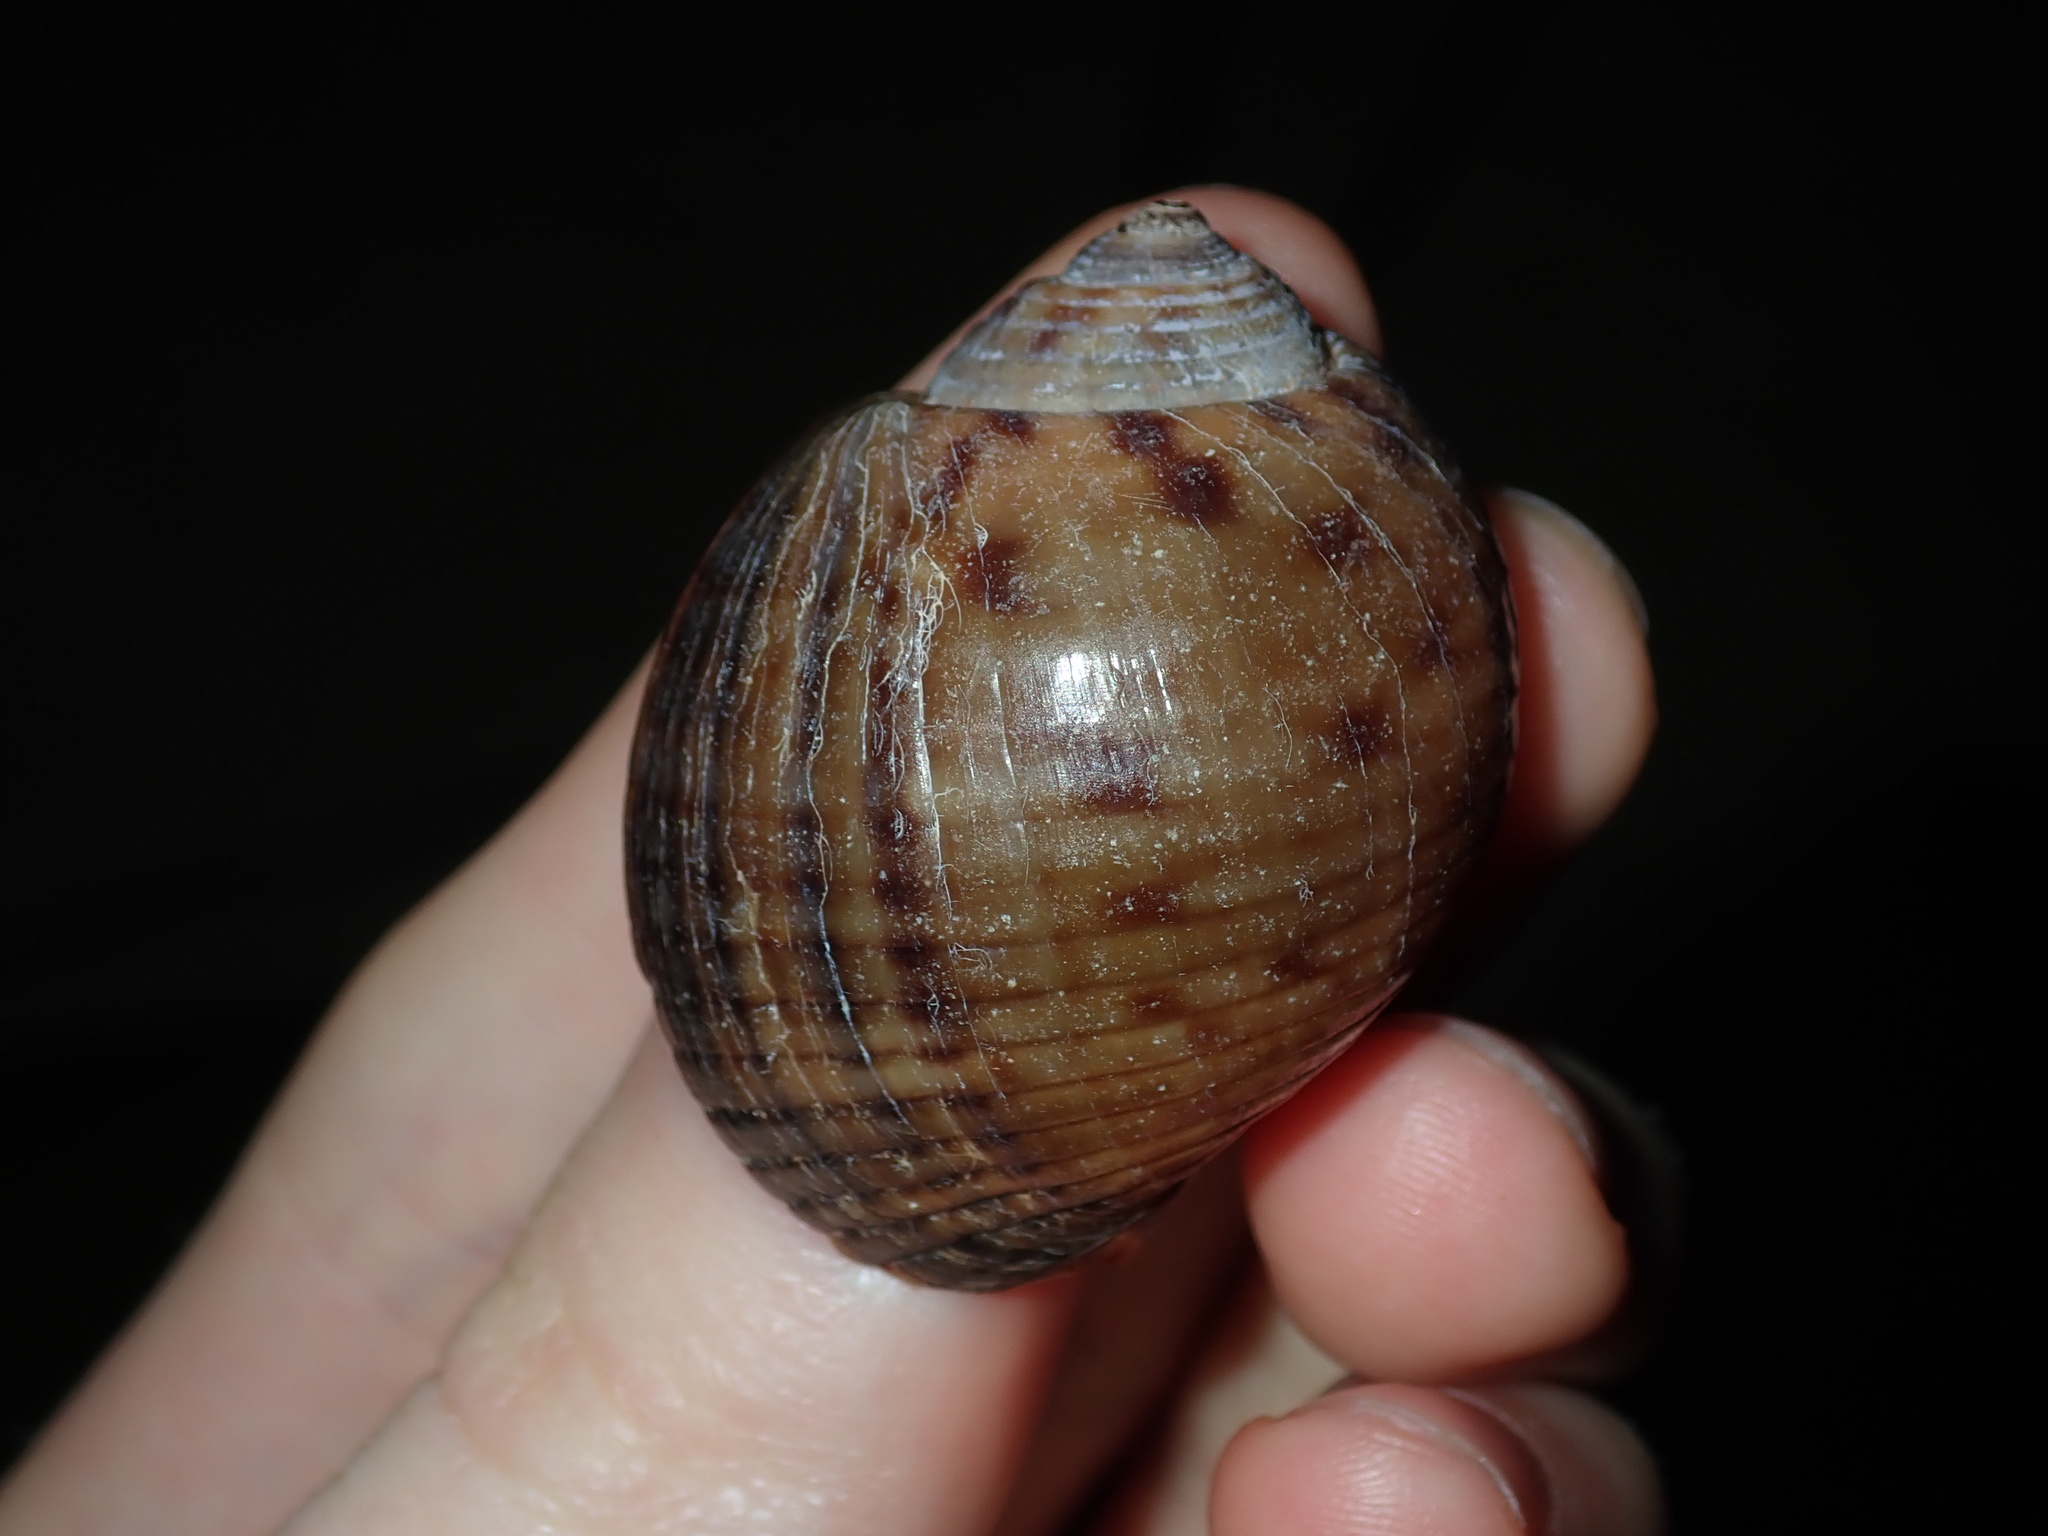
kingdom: Animalia
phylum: Mollusca
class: Gastropoda
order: Littorinimorpha
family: Tonnidae
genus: Tonna
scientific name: Tonna canaliculata
